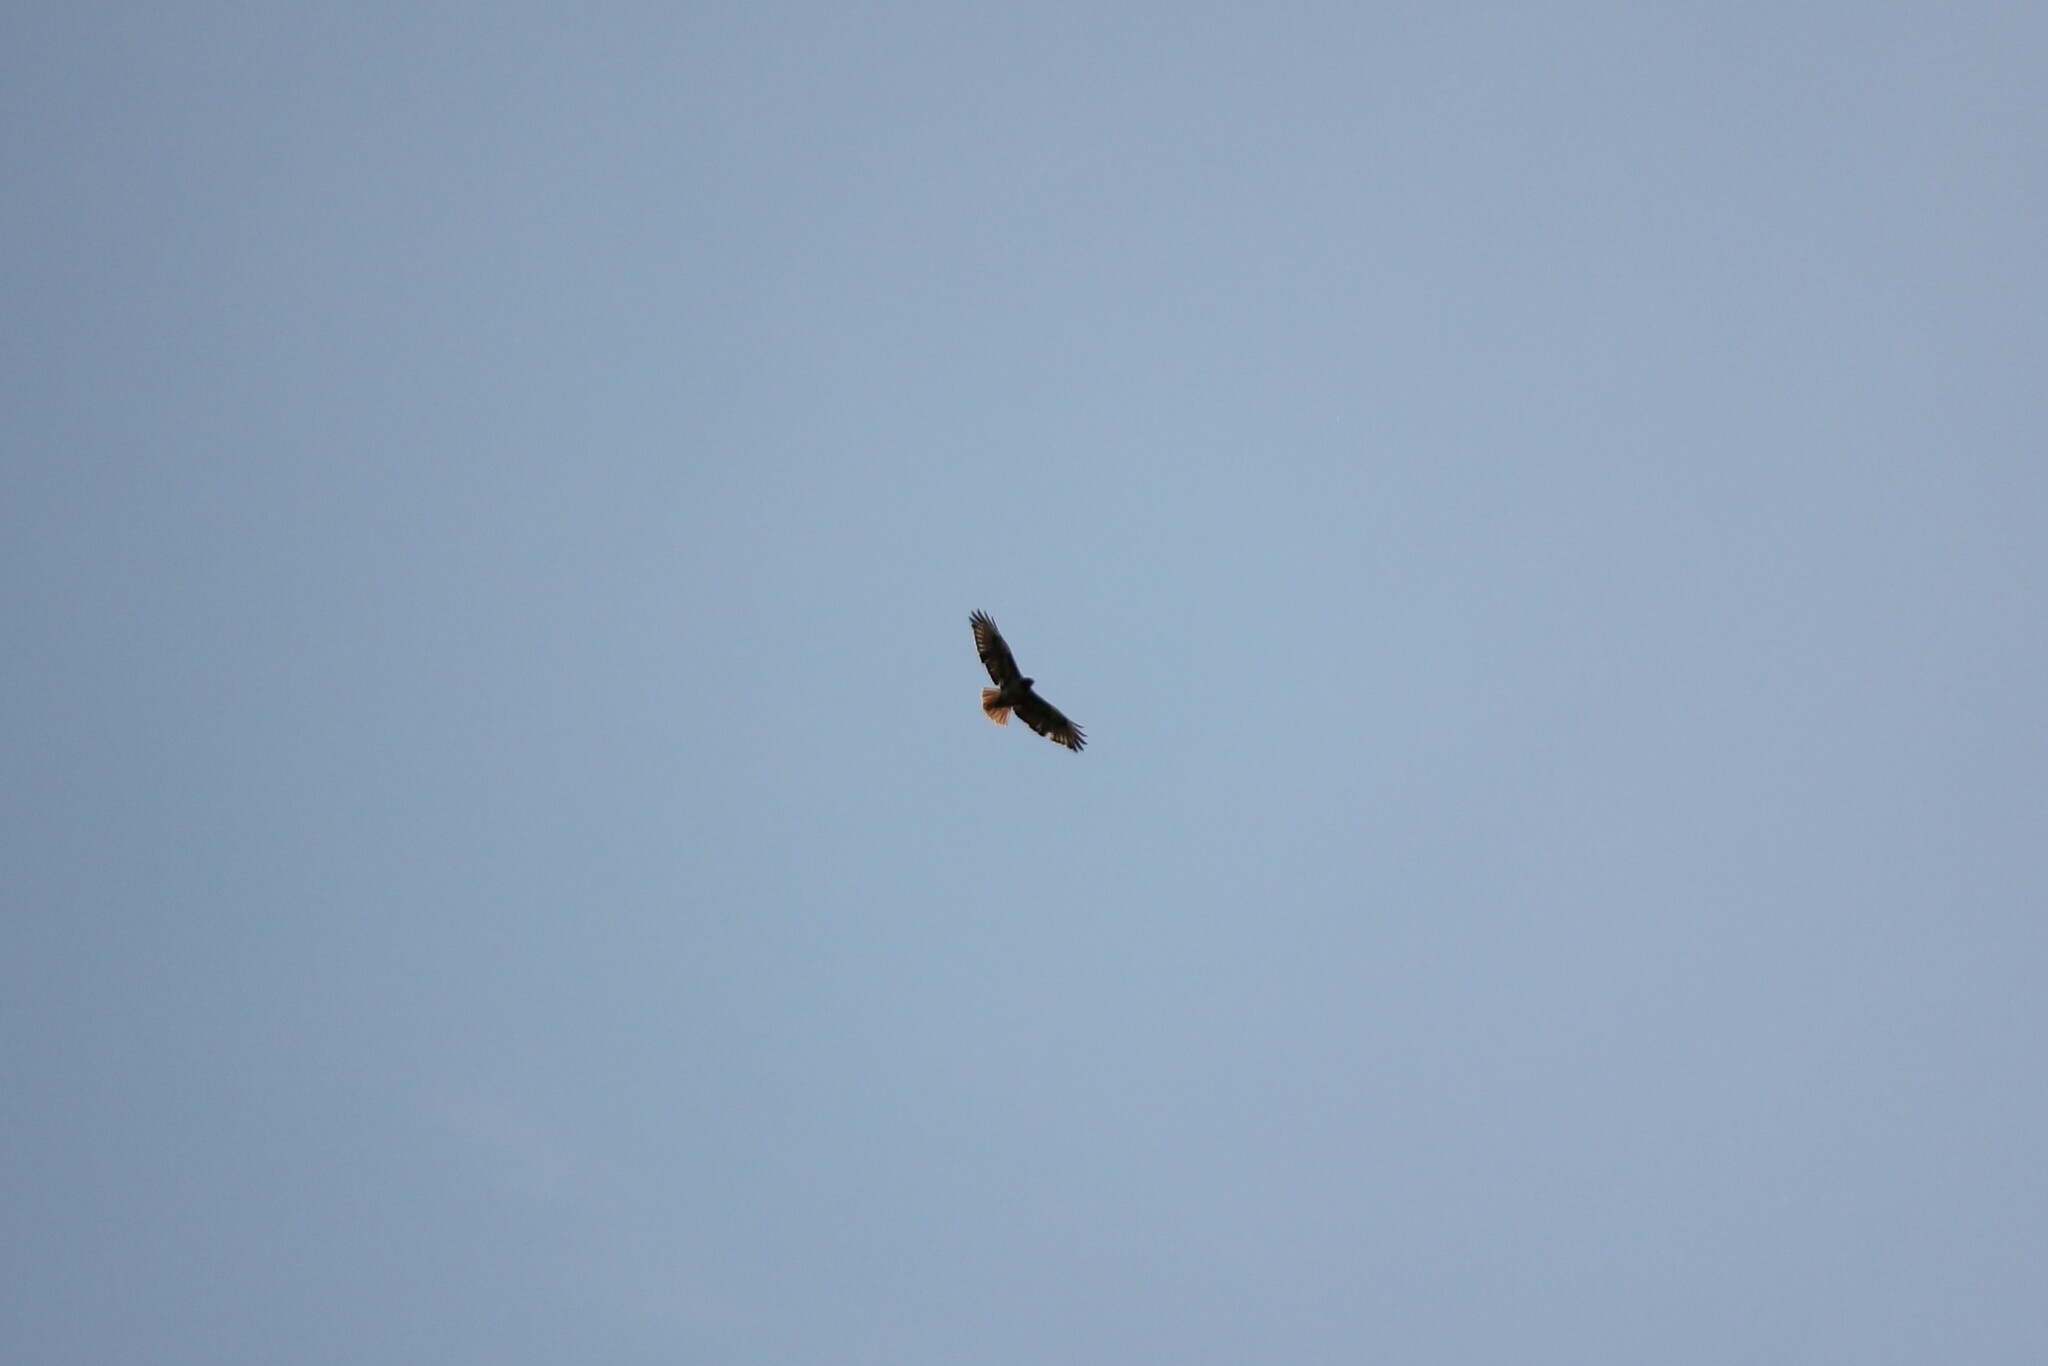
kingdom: Animalia
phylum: Chordata
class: Aves
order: Accipitriformes
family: Accipitridae
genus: Buteo
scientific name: Buteo jamaicensis
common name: Red-tailed hawk
